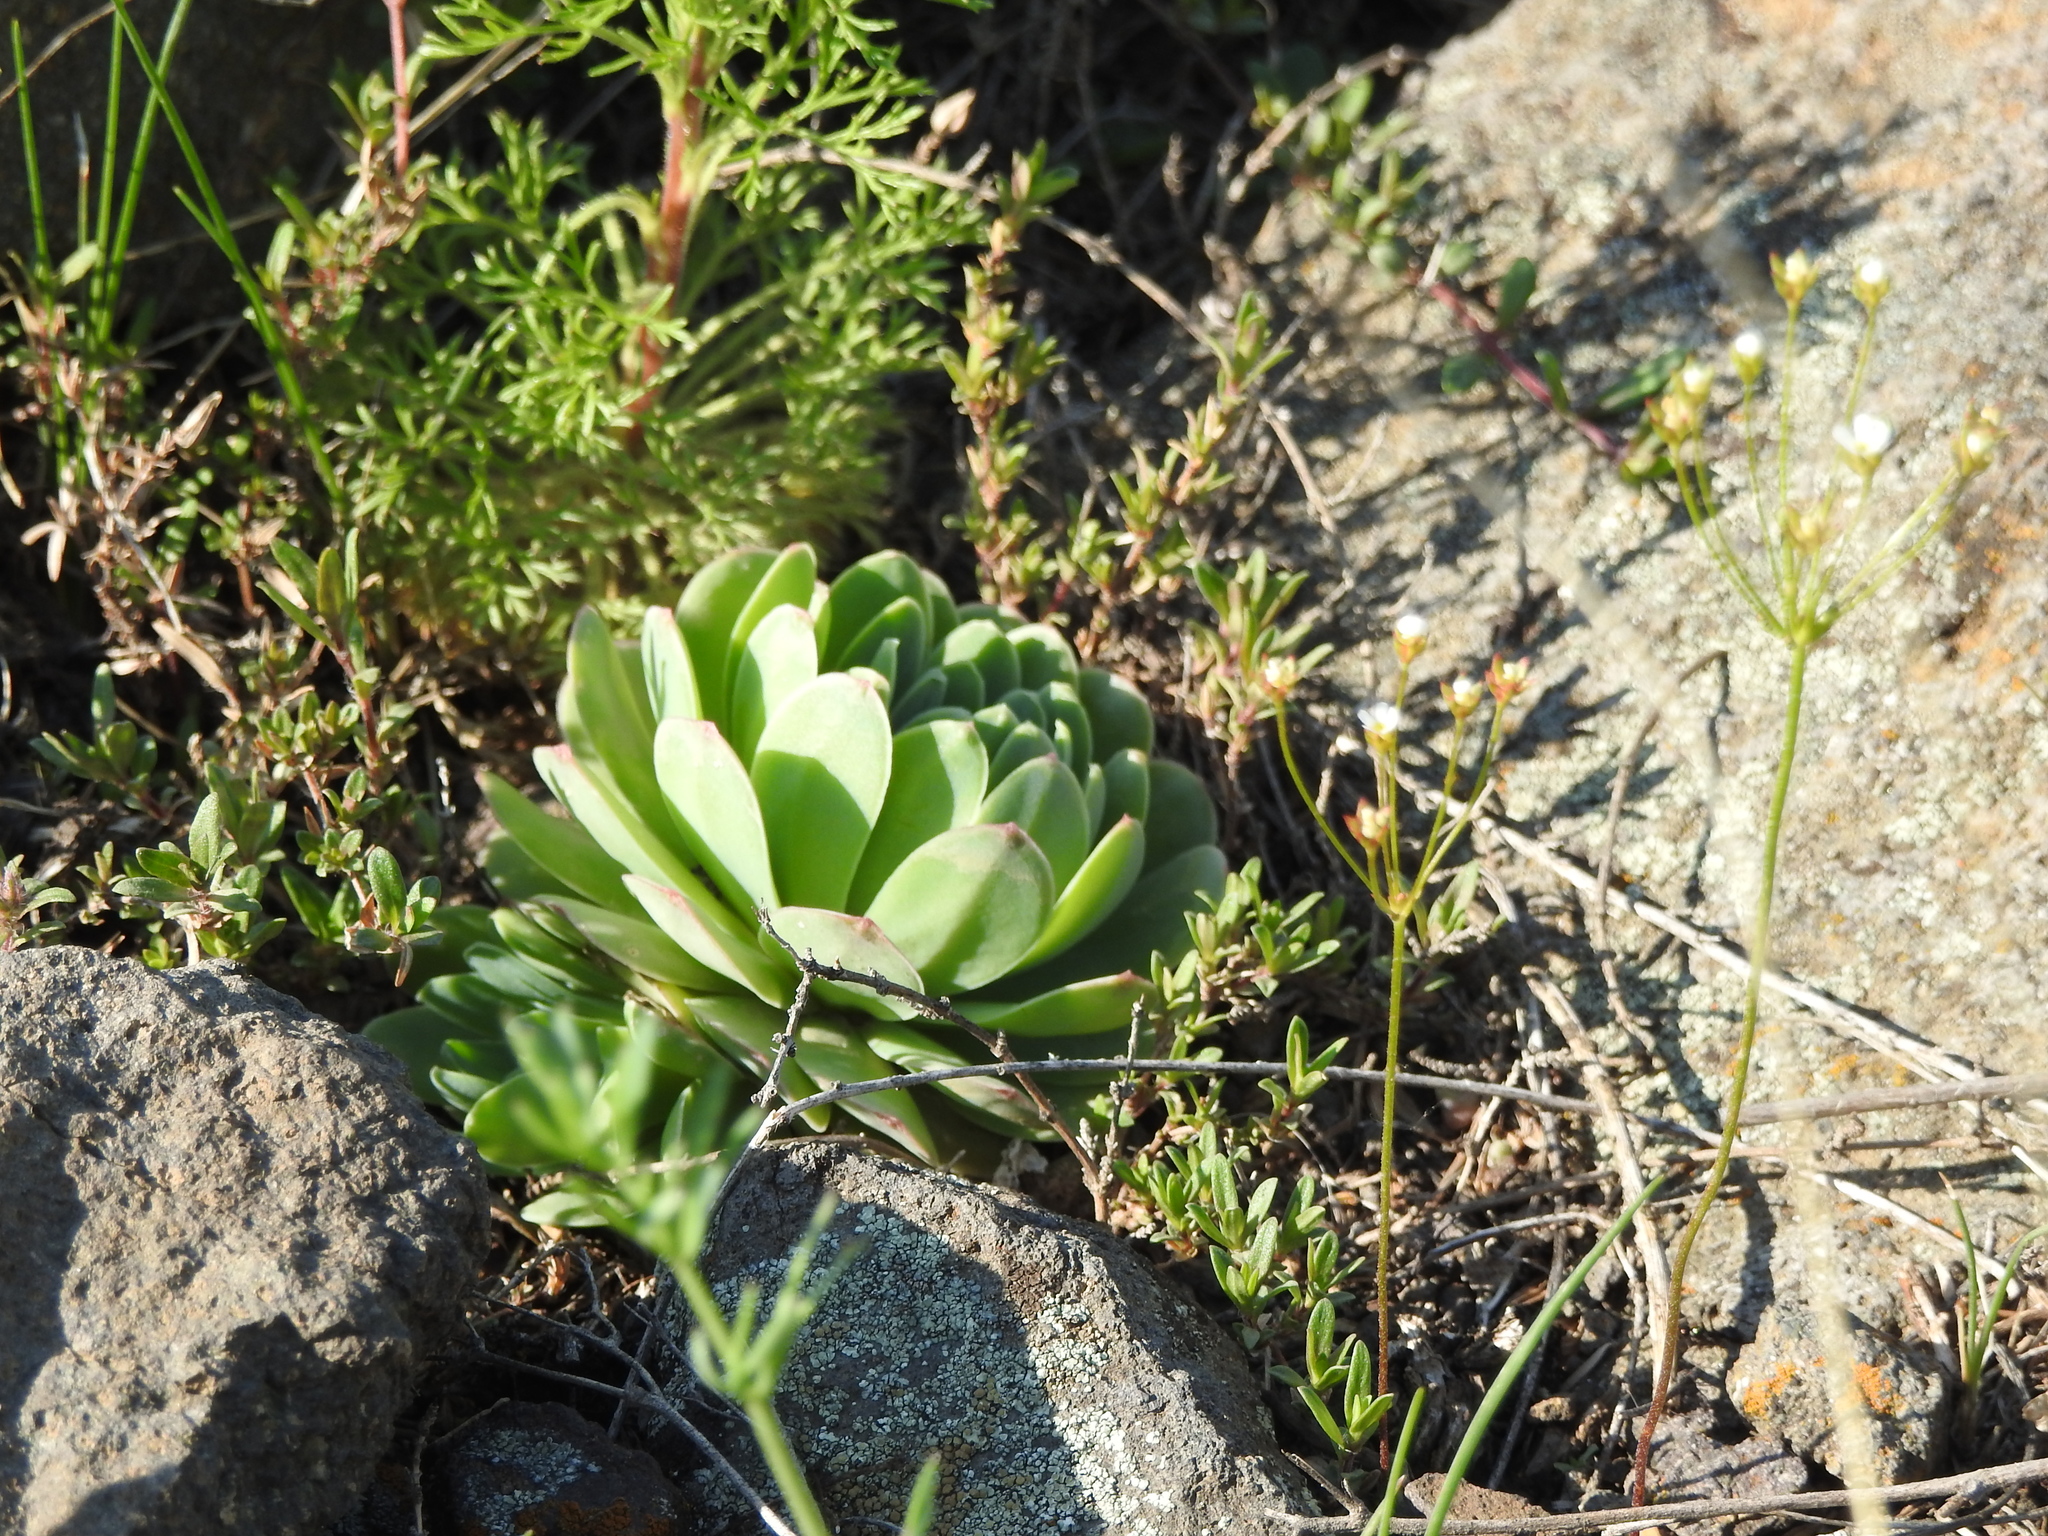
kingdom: Plantae
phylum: Tracheophyta
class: Magnoliopsida
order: Saxifragales
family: Crassulaceae
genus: Orostachys
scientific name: Orostachys malacophylla
